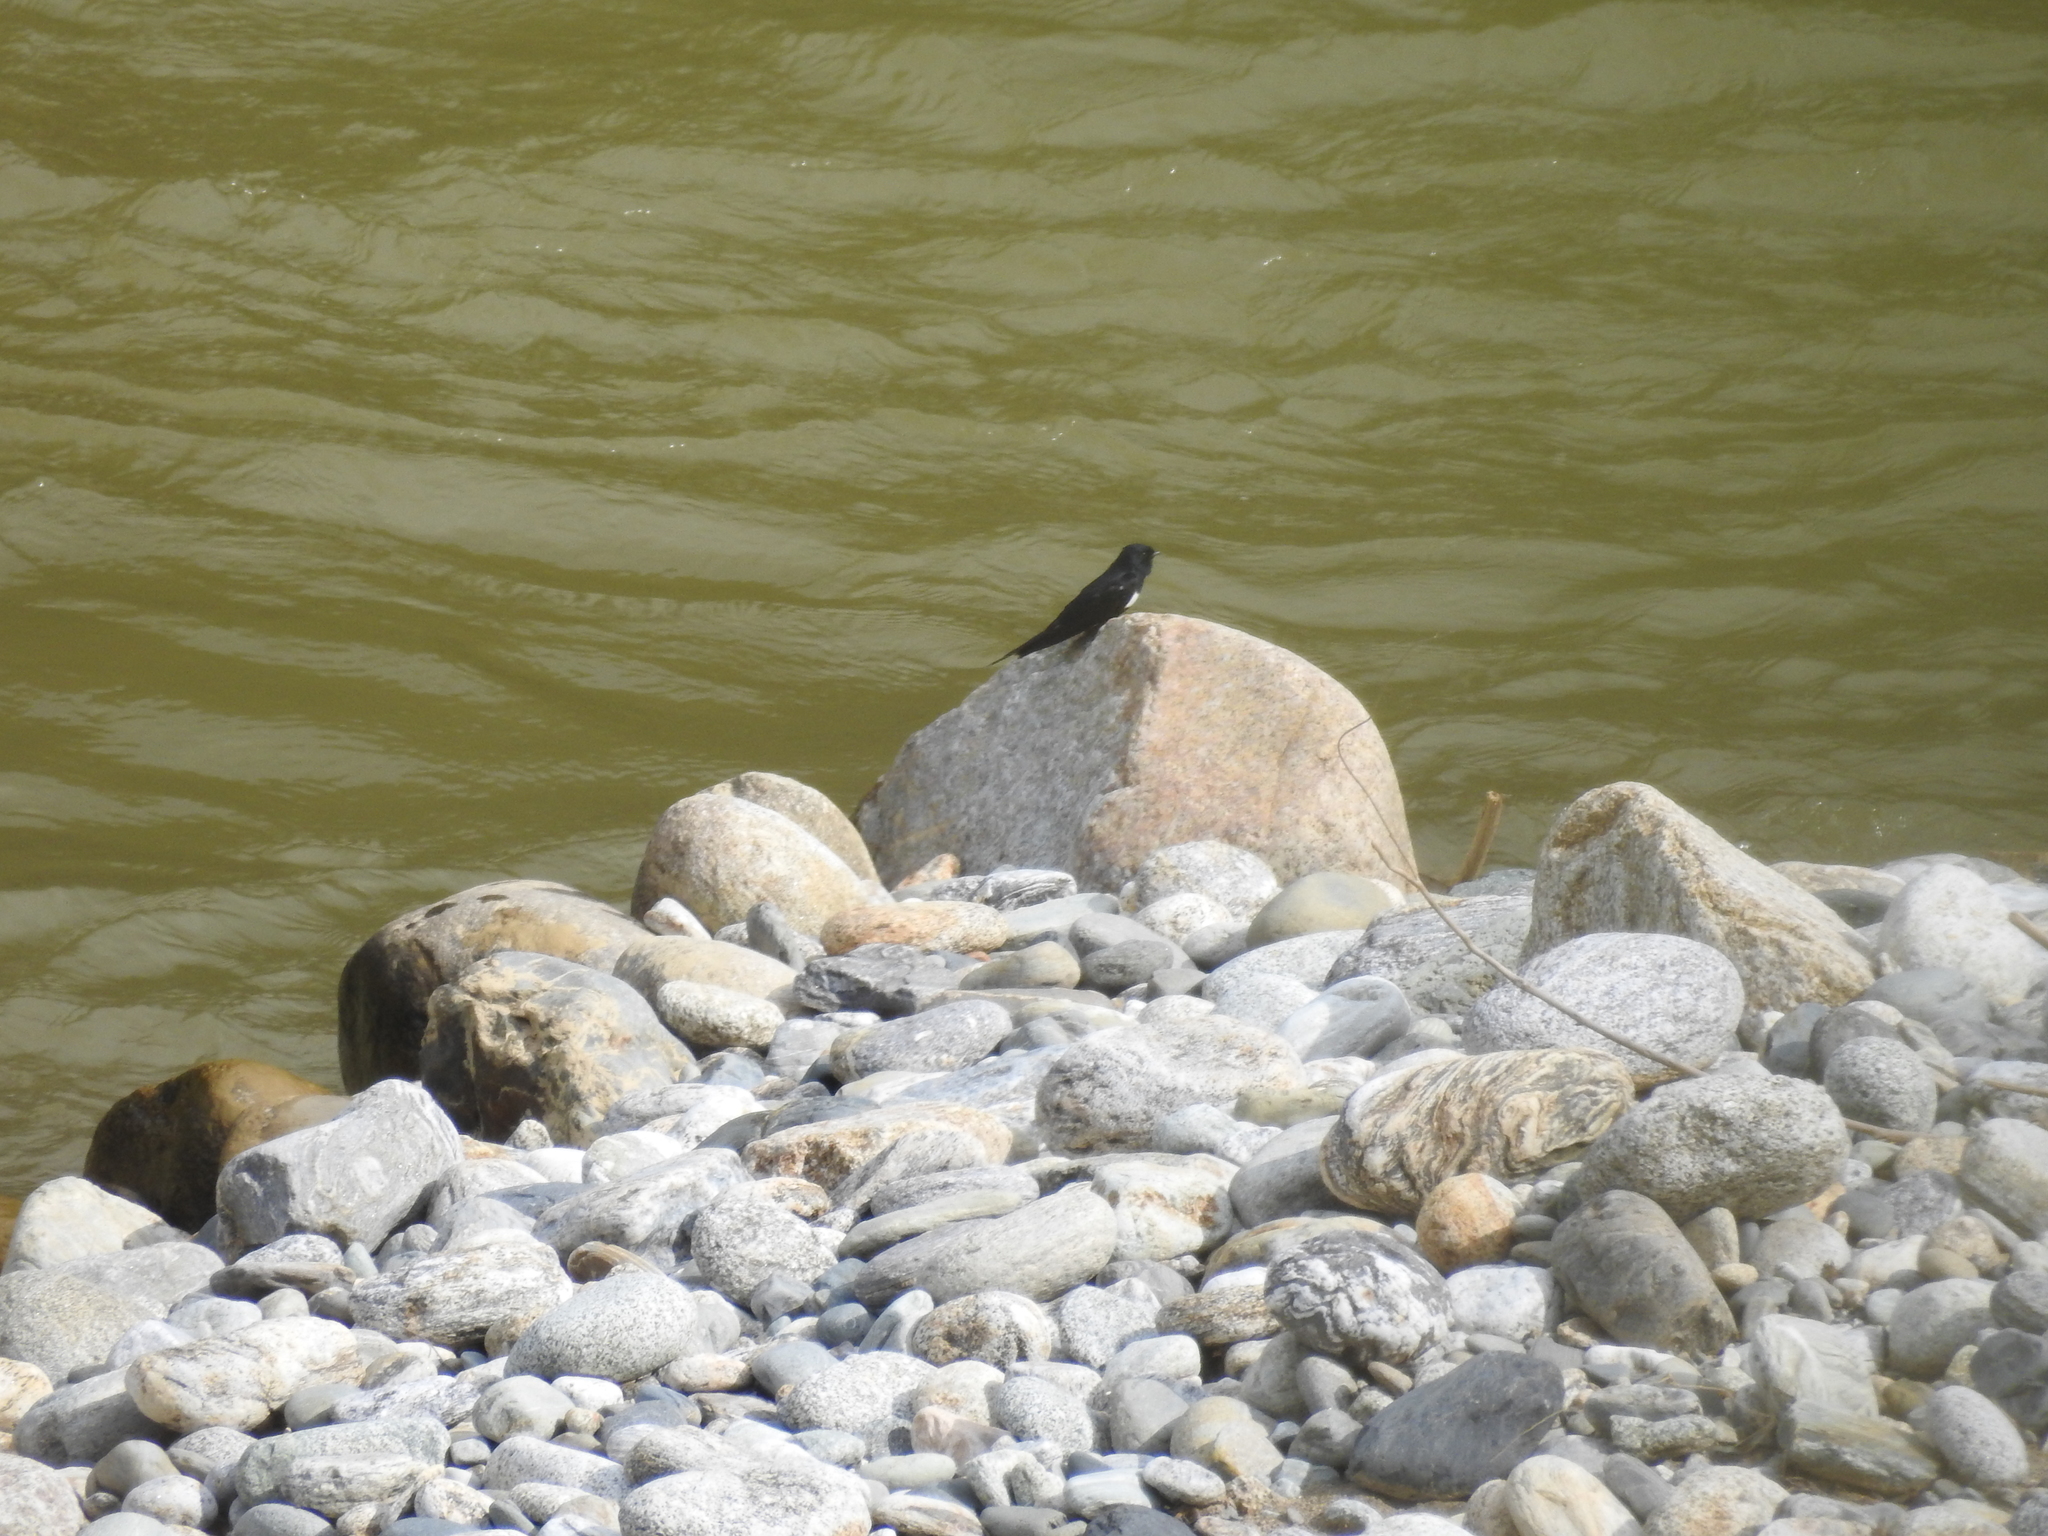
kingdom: Animalia
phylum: Chordata
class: Aves
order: Passeriformes
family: Hirundinidae
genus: Atticora
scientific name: Atticora fasciata
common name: White-banded swallow
